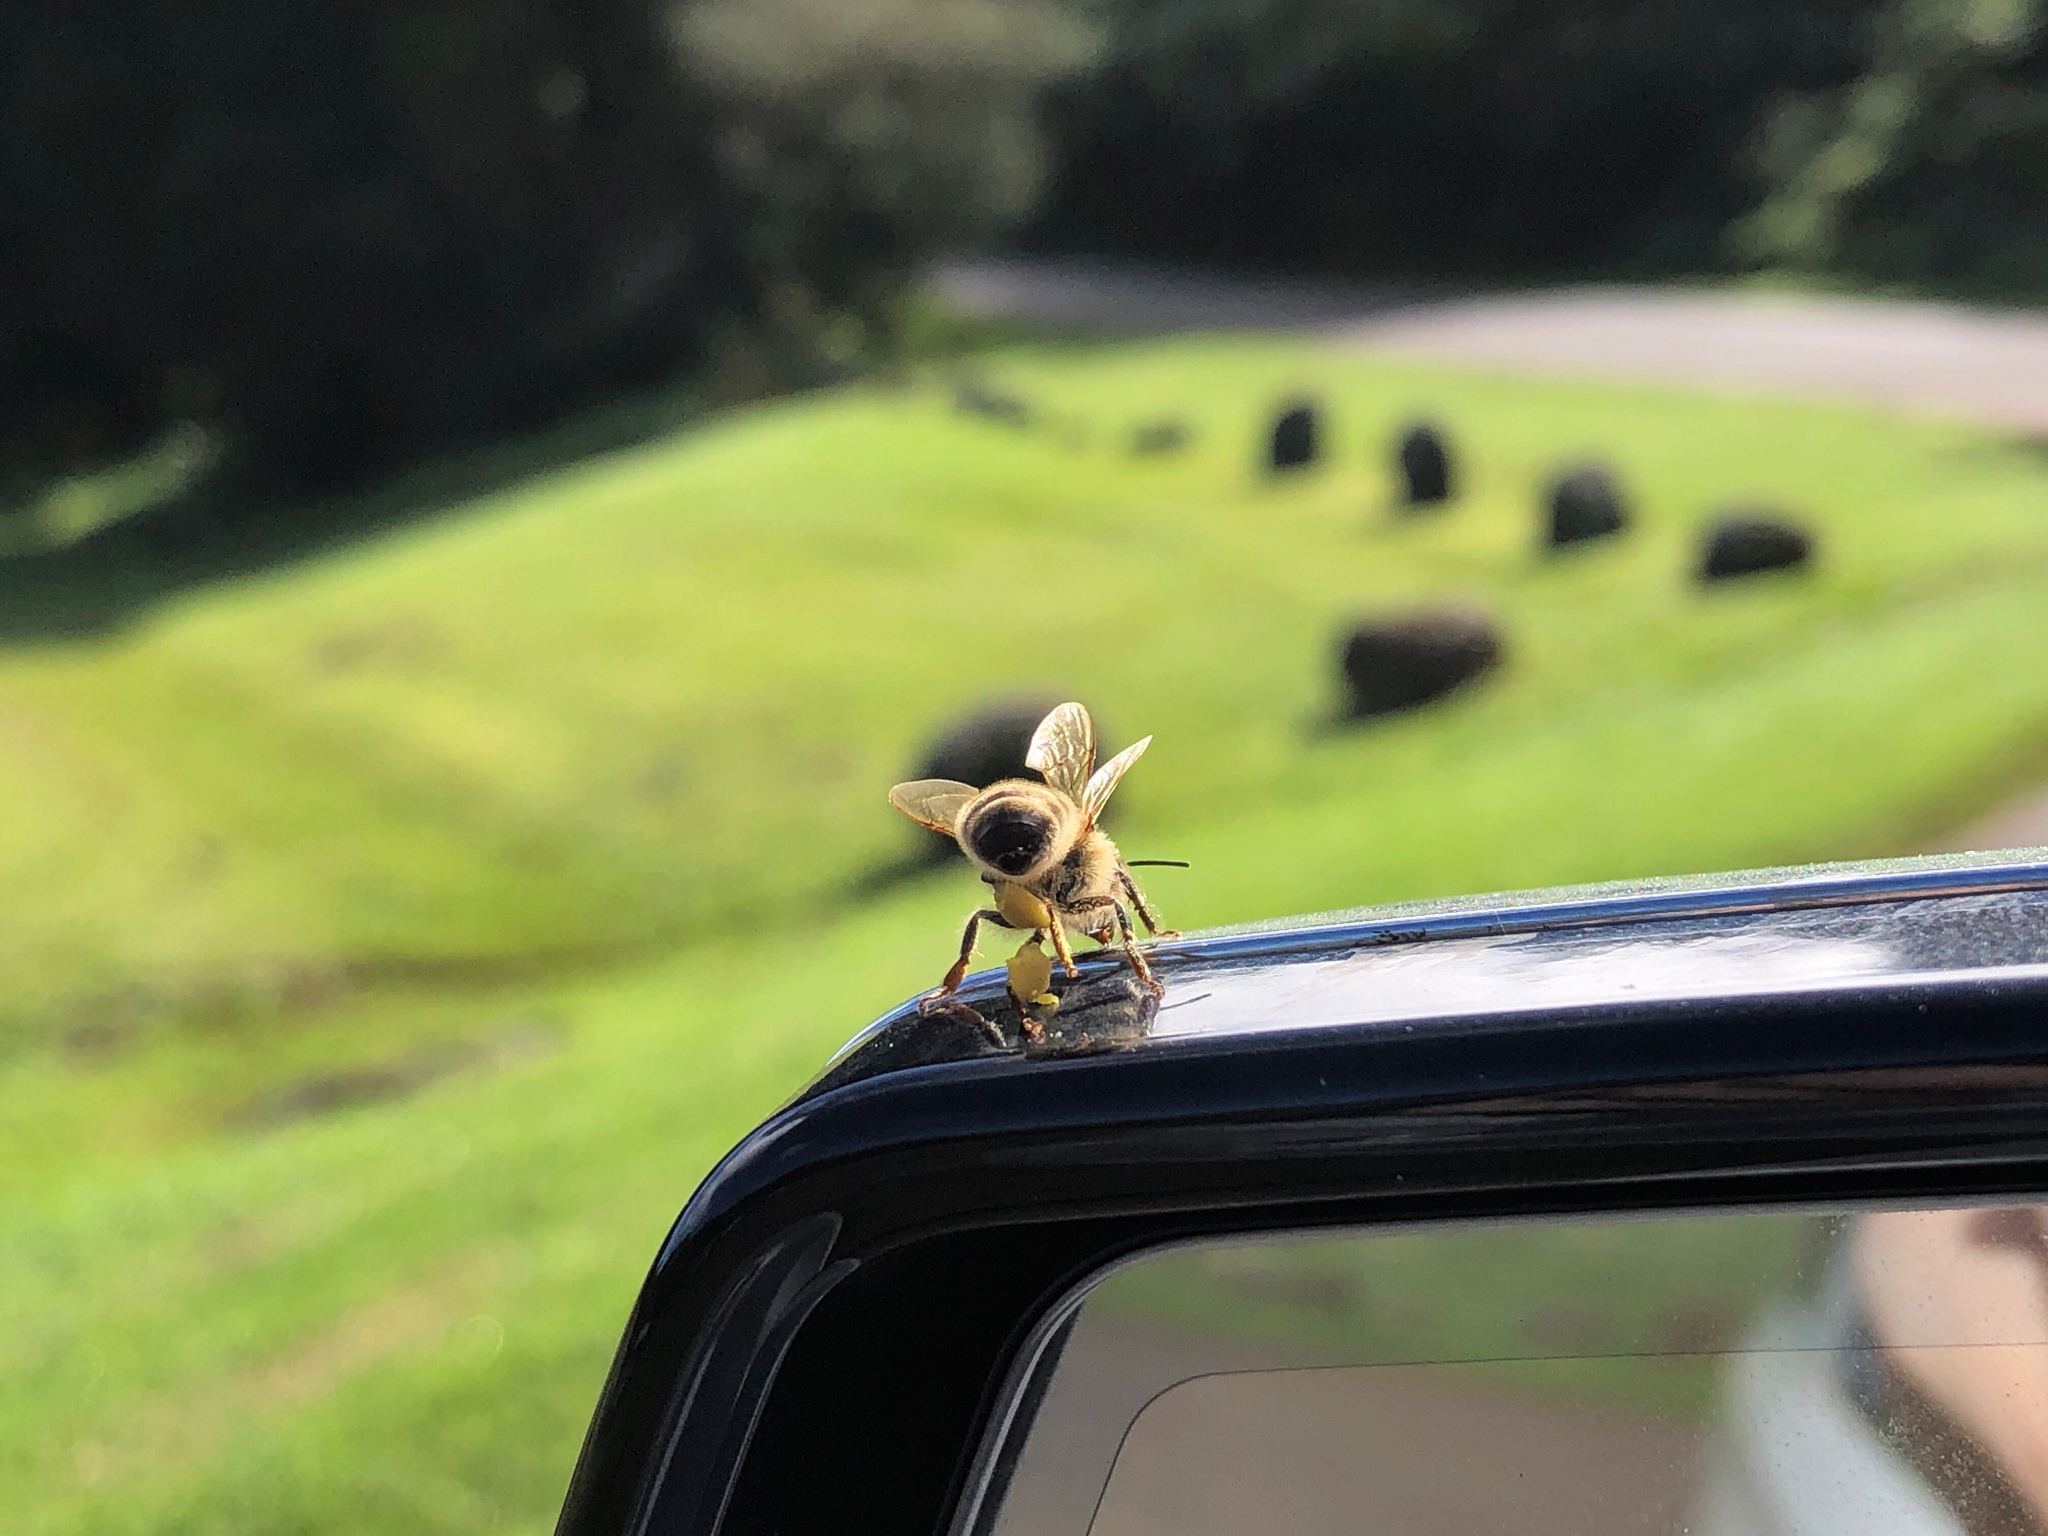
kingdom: Animalia
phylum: Arthropoda
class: Insecta
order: Hymenoptera
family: Apidae
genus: Apis
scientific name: Apis mellifera
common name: Honey bee
